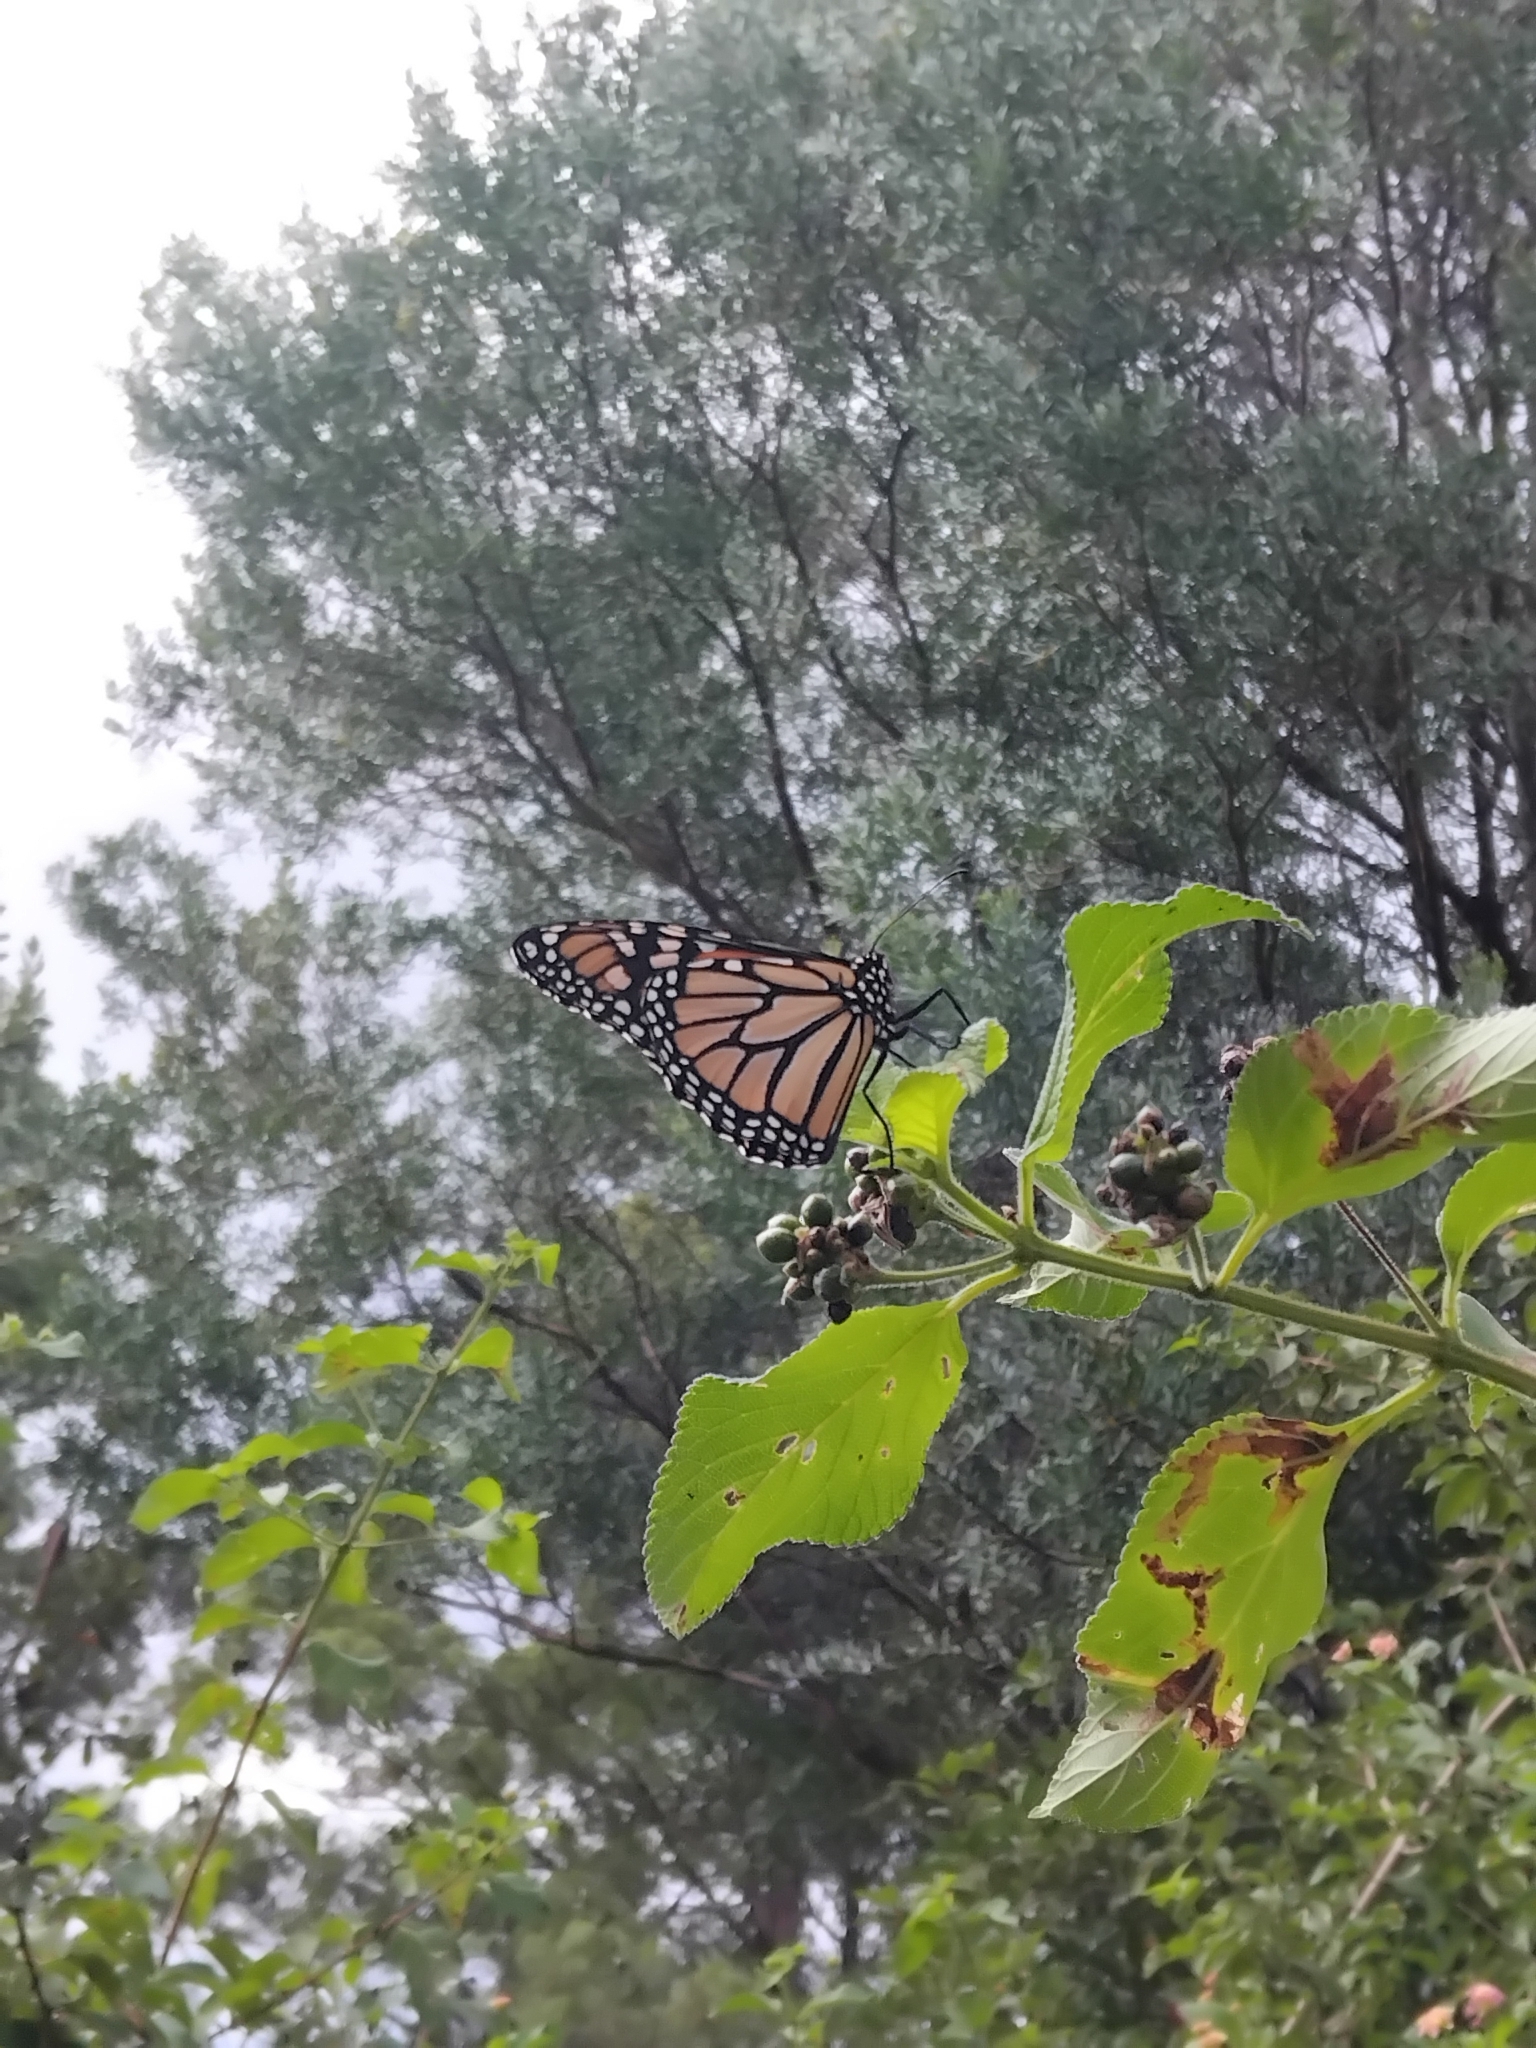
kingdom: Animalia
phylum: Arthropoda
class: Insecta
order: Lepidoptera
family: Nymphalidae
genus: Danaus
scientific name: Danaus plexippus
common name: Monarch
